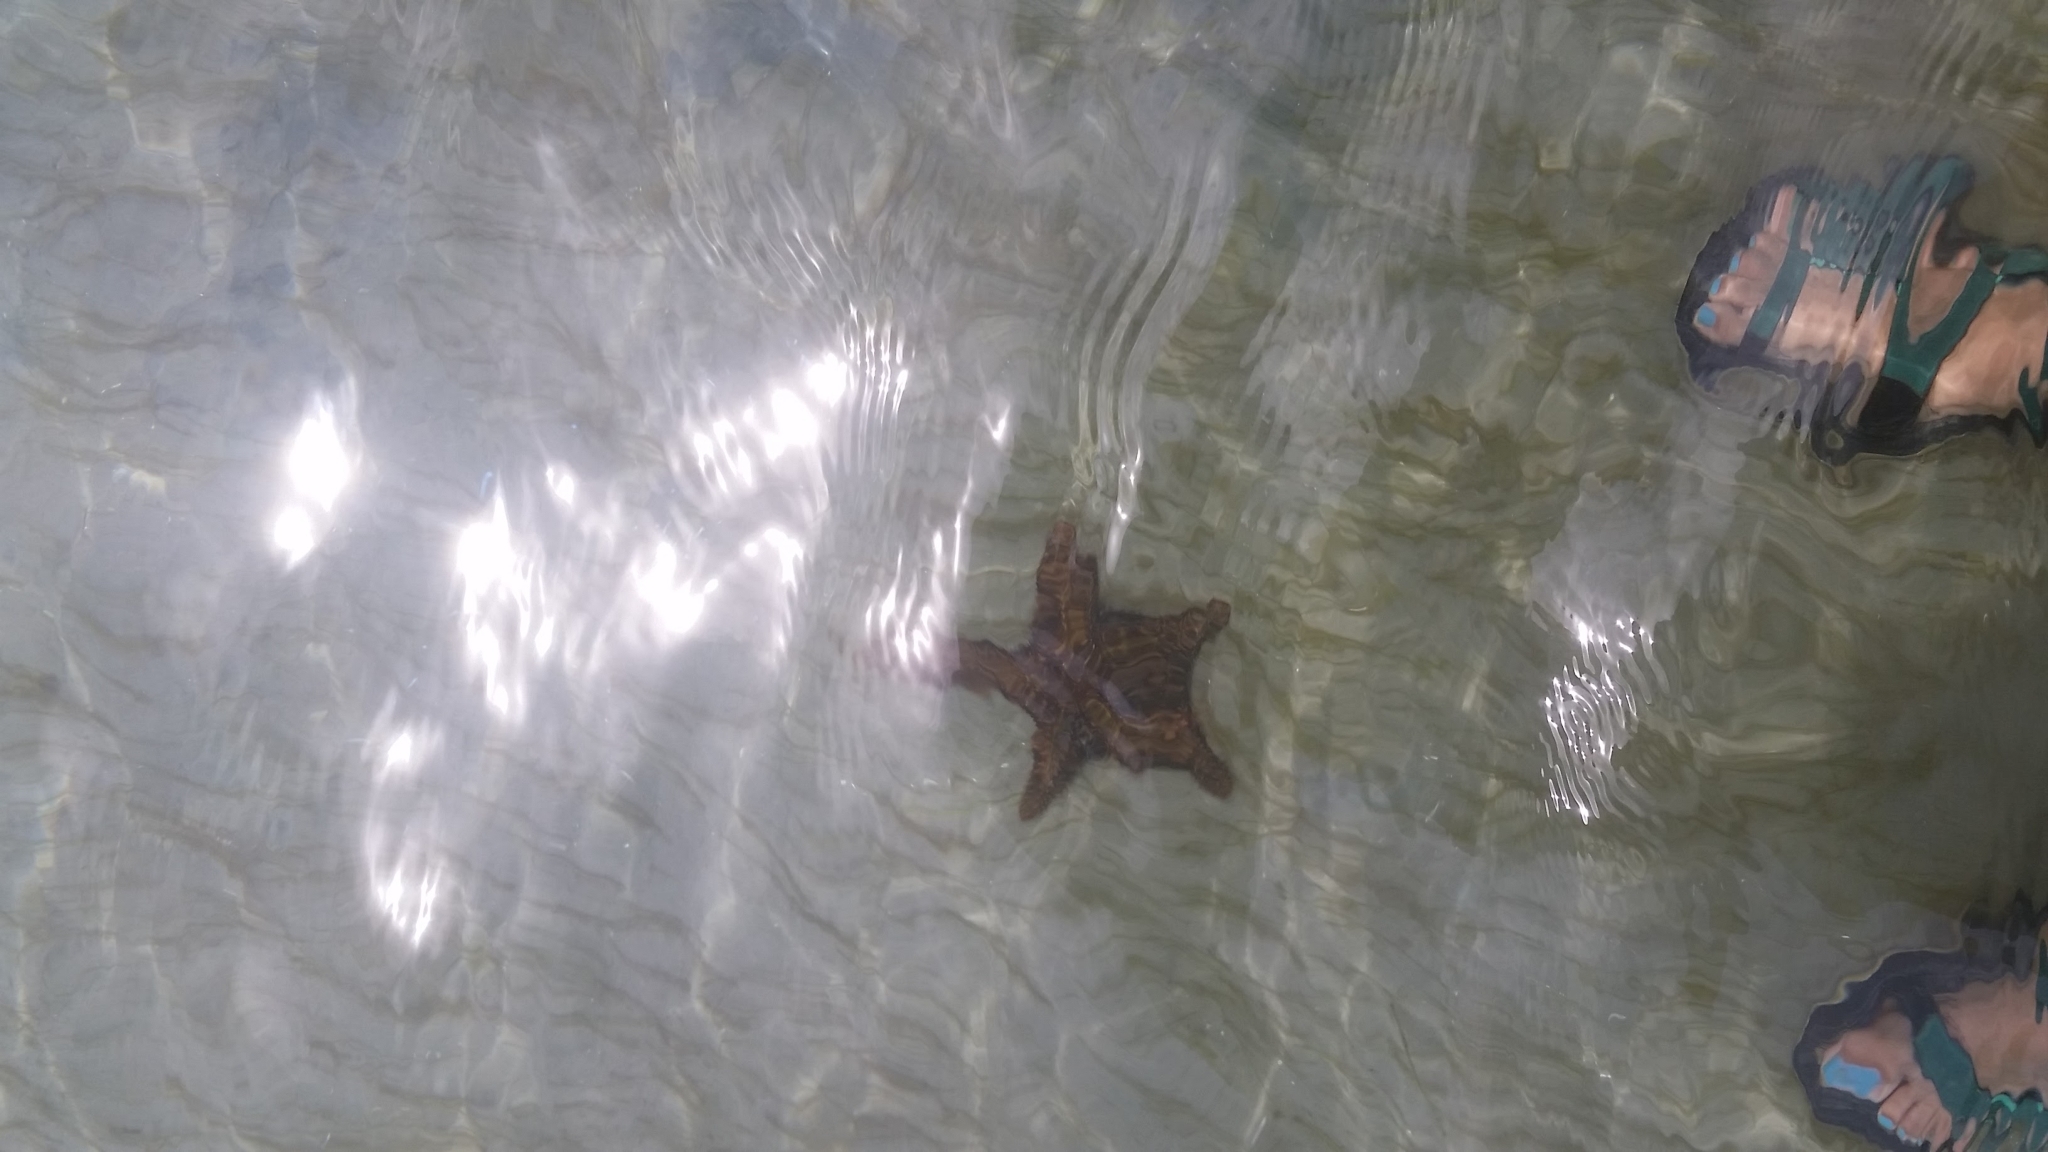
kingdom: Animalia
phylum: Echinodermata
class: Asteroidea
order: Valvatida
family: Oreasteridae
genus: Oreaster
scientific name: Oreaster reticulatus
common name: Cushion sea star
